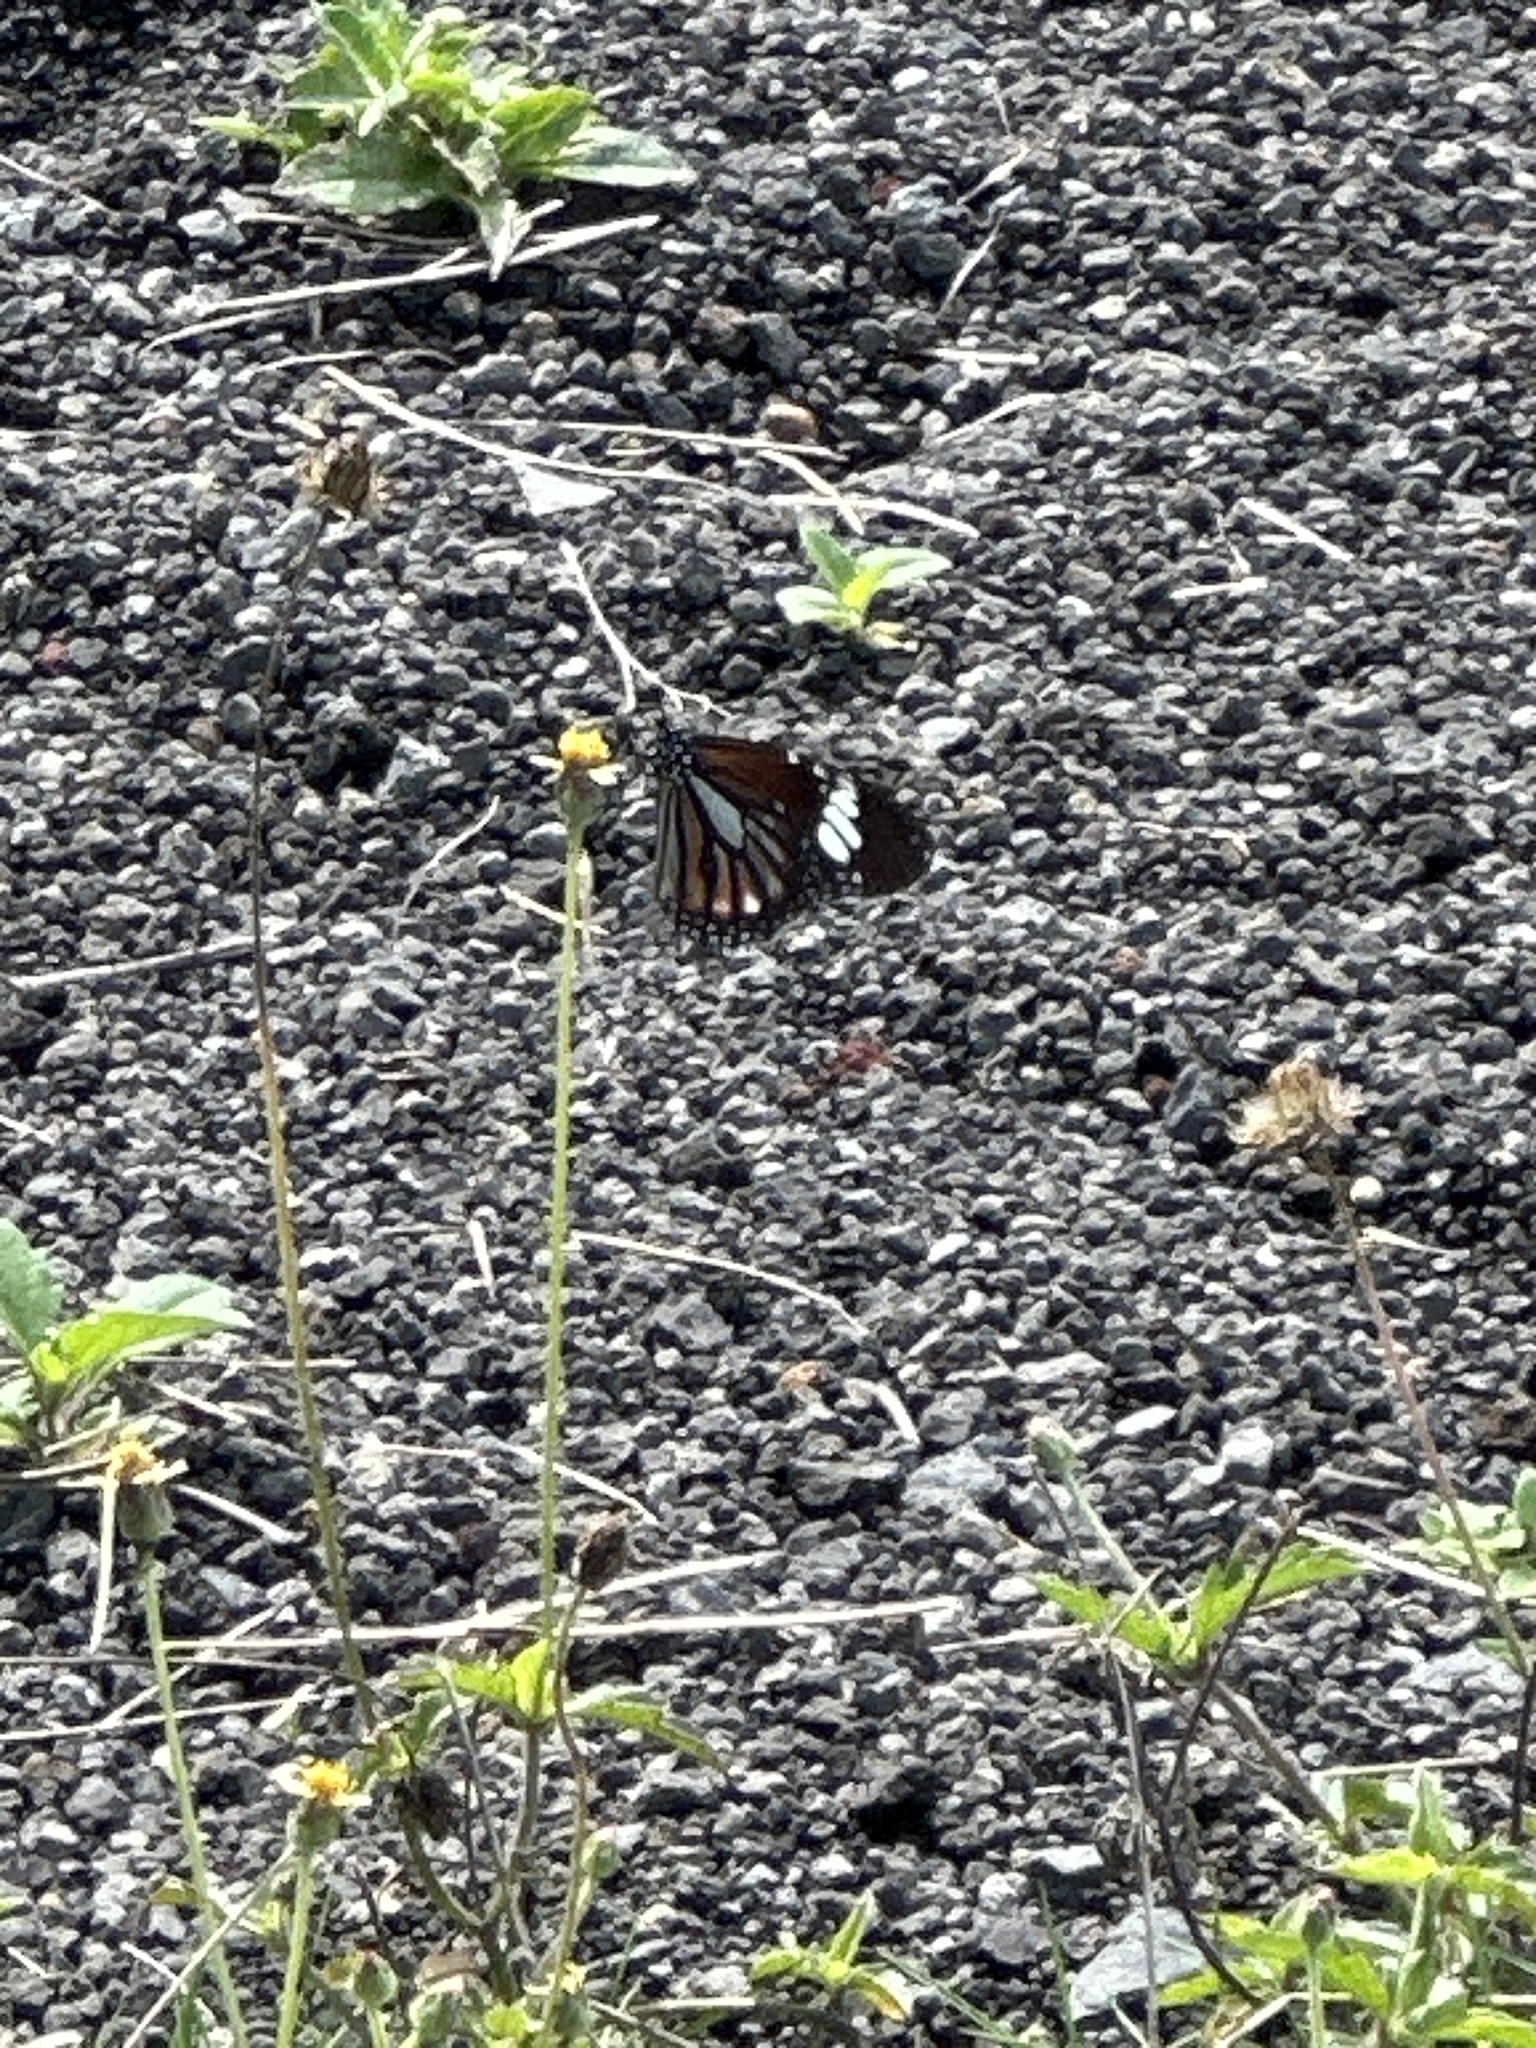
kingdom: Animalia
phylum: Arthropoda
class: Insecta
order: Lepidoptera
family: Nymphalidae
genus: Danaus
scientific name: Danaus genutia
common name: Common tiger butterfly
